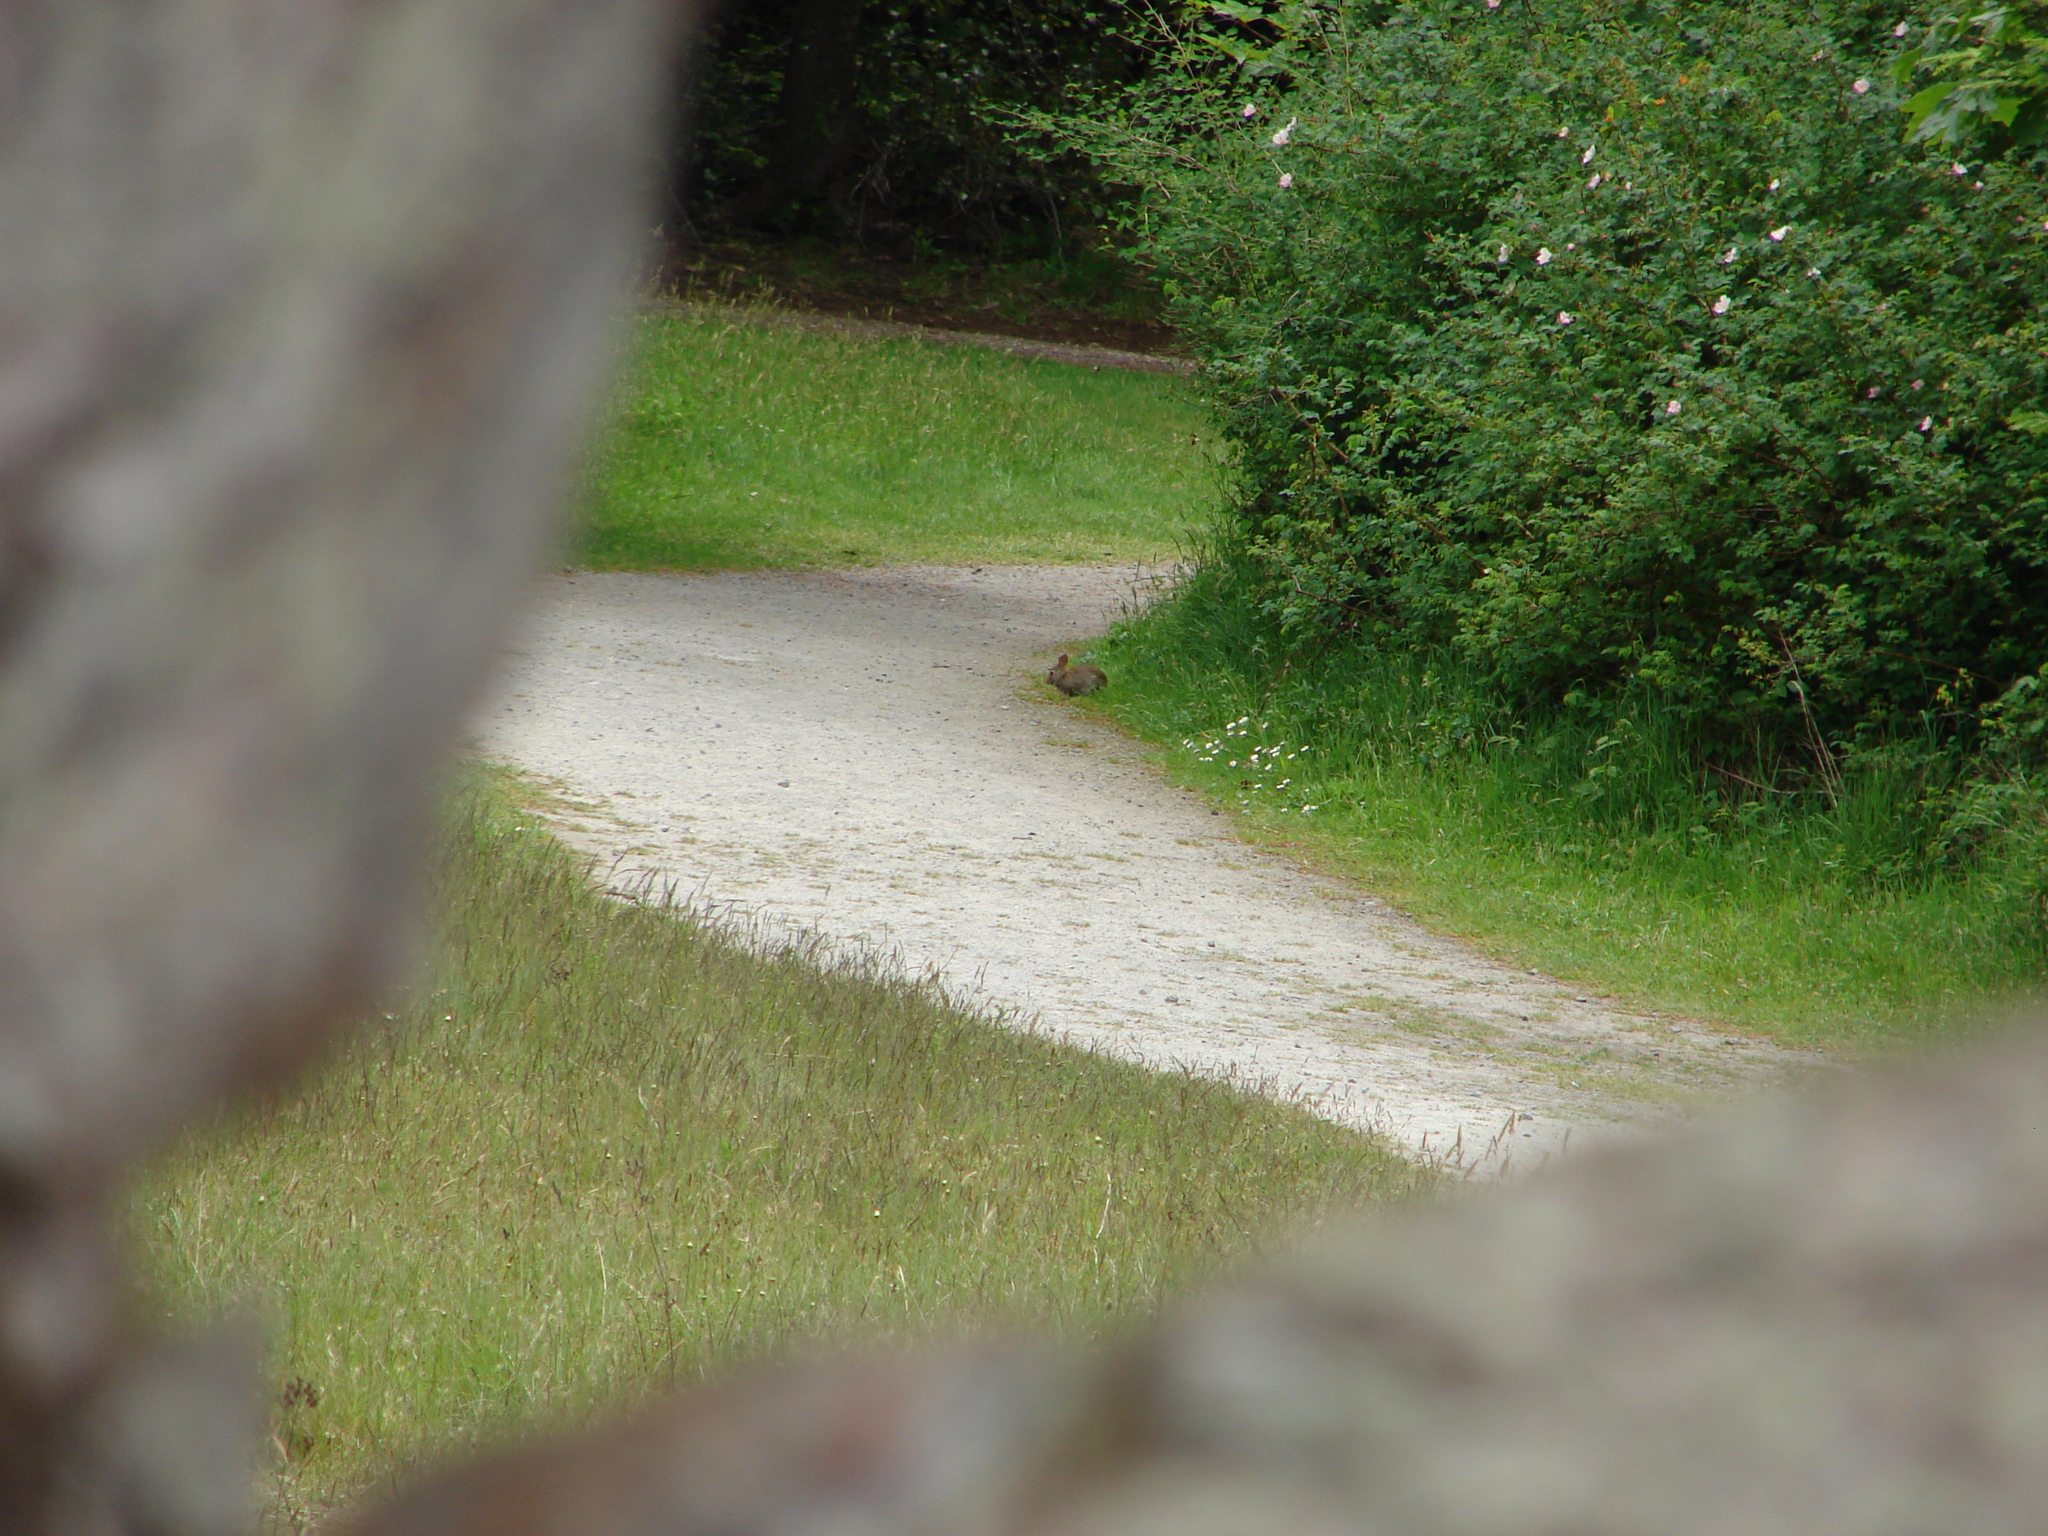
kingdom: Animalia
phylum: Chordata
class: Mammalia
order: Lagomorpha
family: Leporidae
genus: Sylvilagus
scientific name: Sylvilagus floridanus
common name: Eastern cottontail
